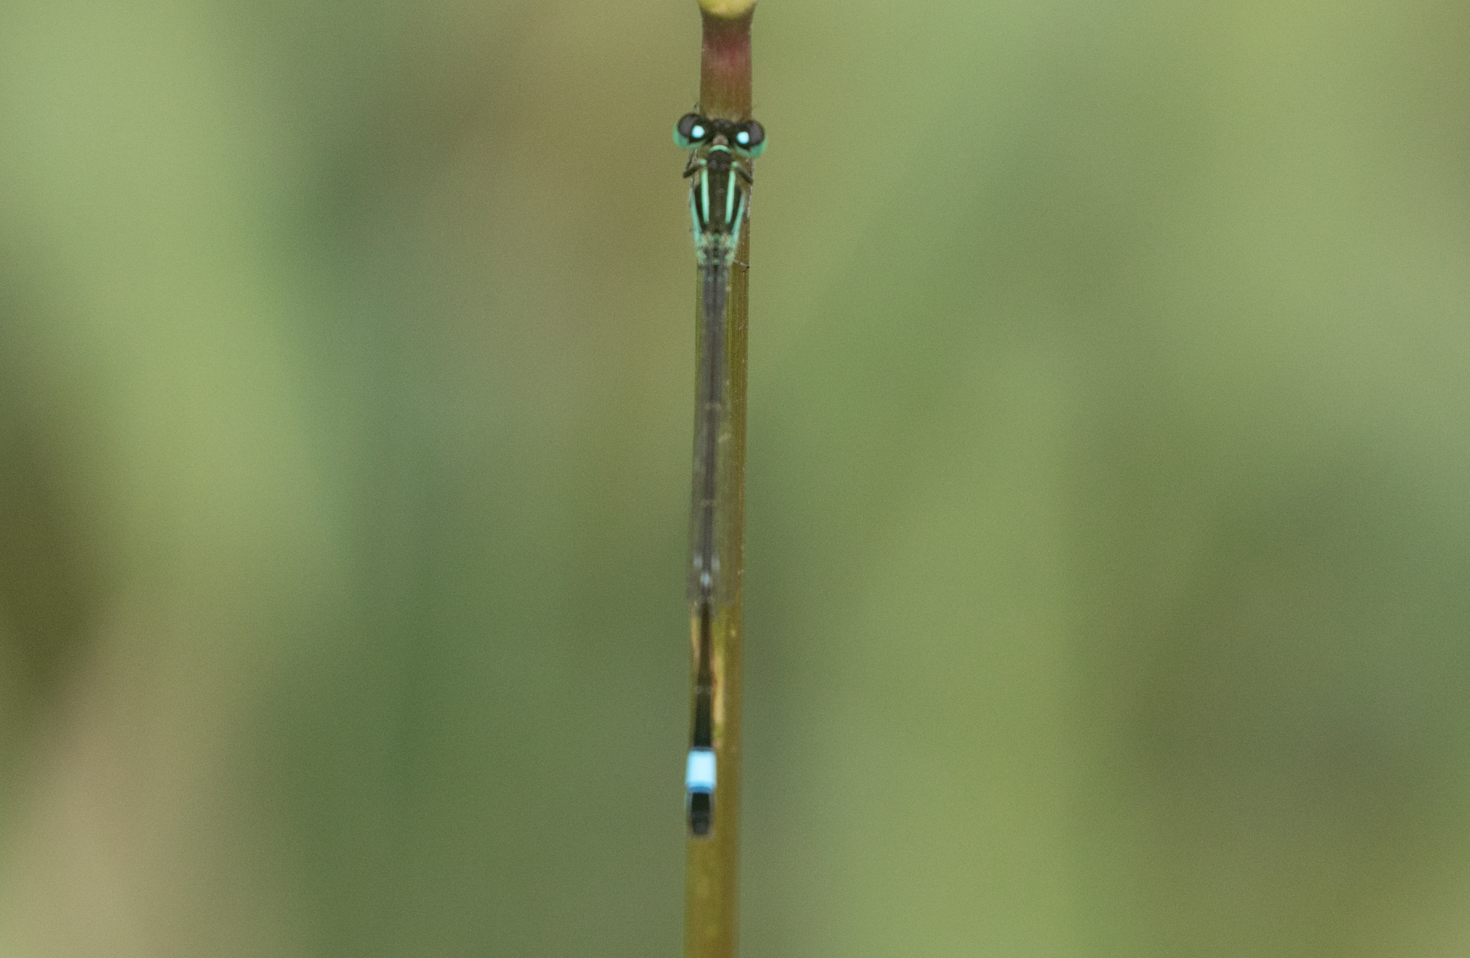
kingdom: Animalia
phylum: Arthropoda
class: Insecta
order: Odonata
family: Coenagrionidae
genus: Ischnura
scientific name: Ischnura elegans
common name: Blue-tailed damselfly
